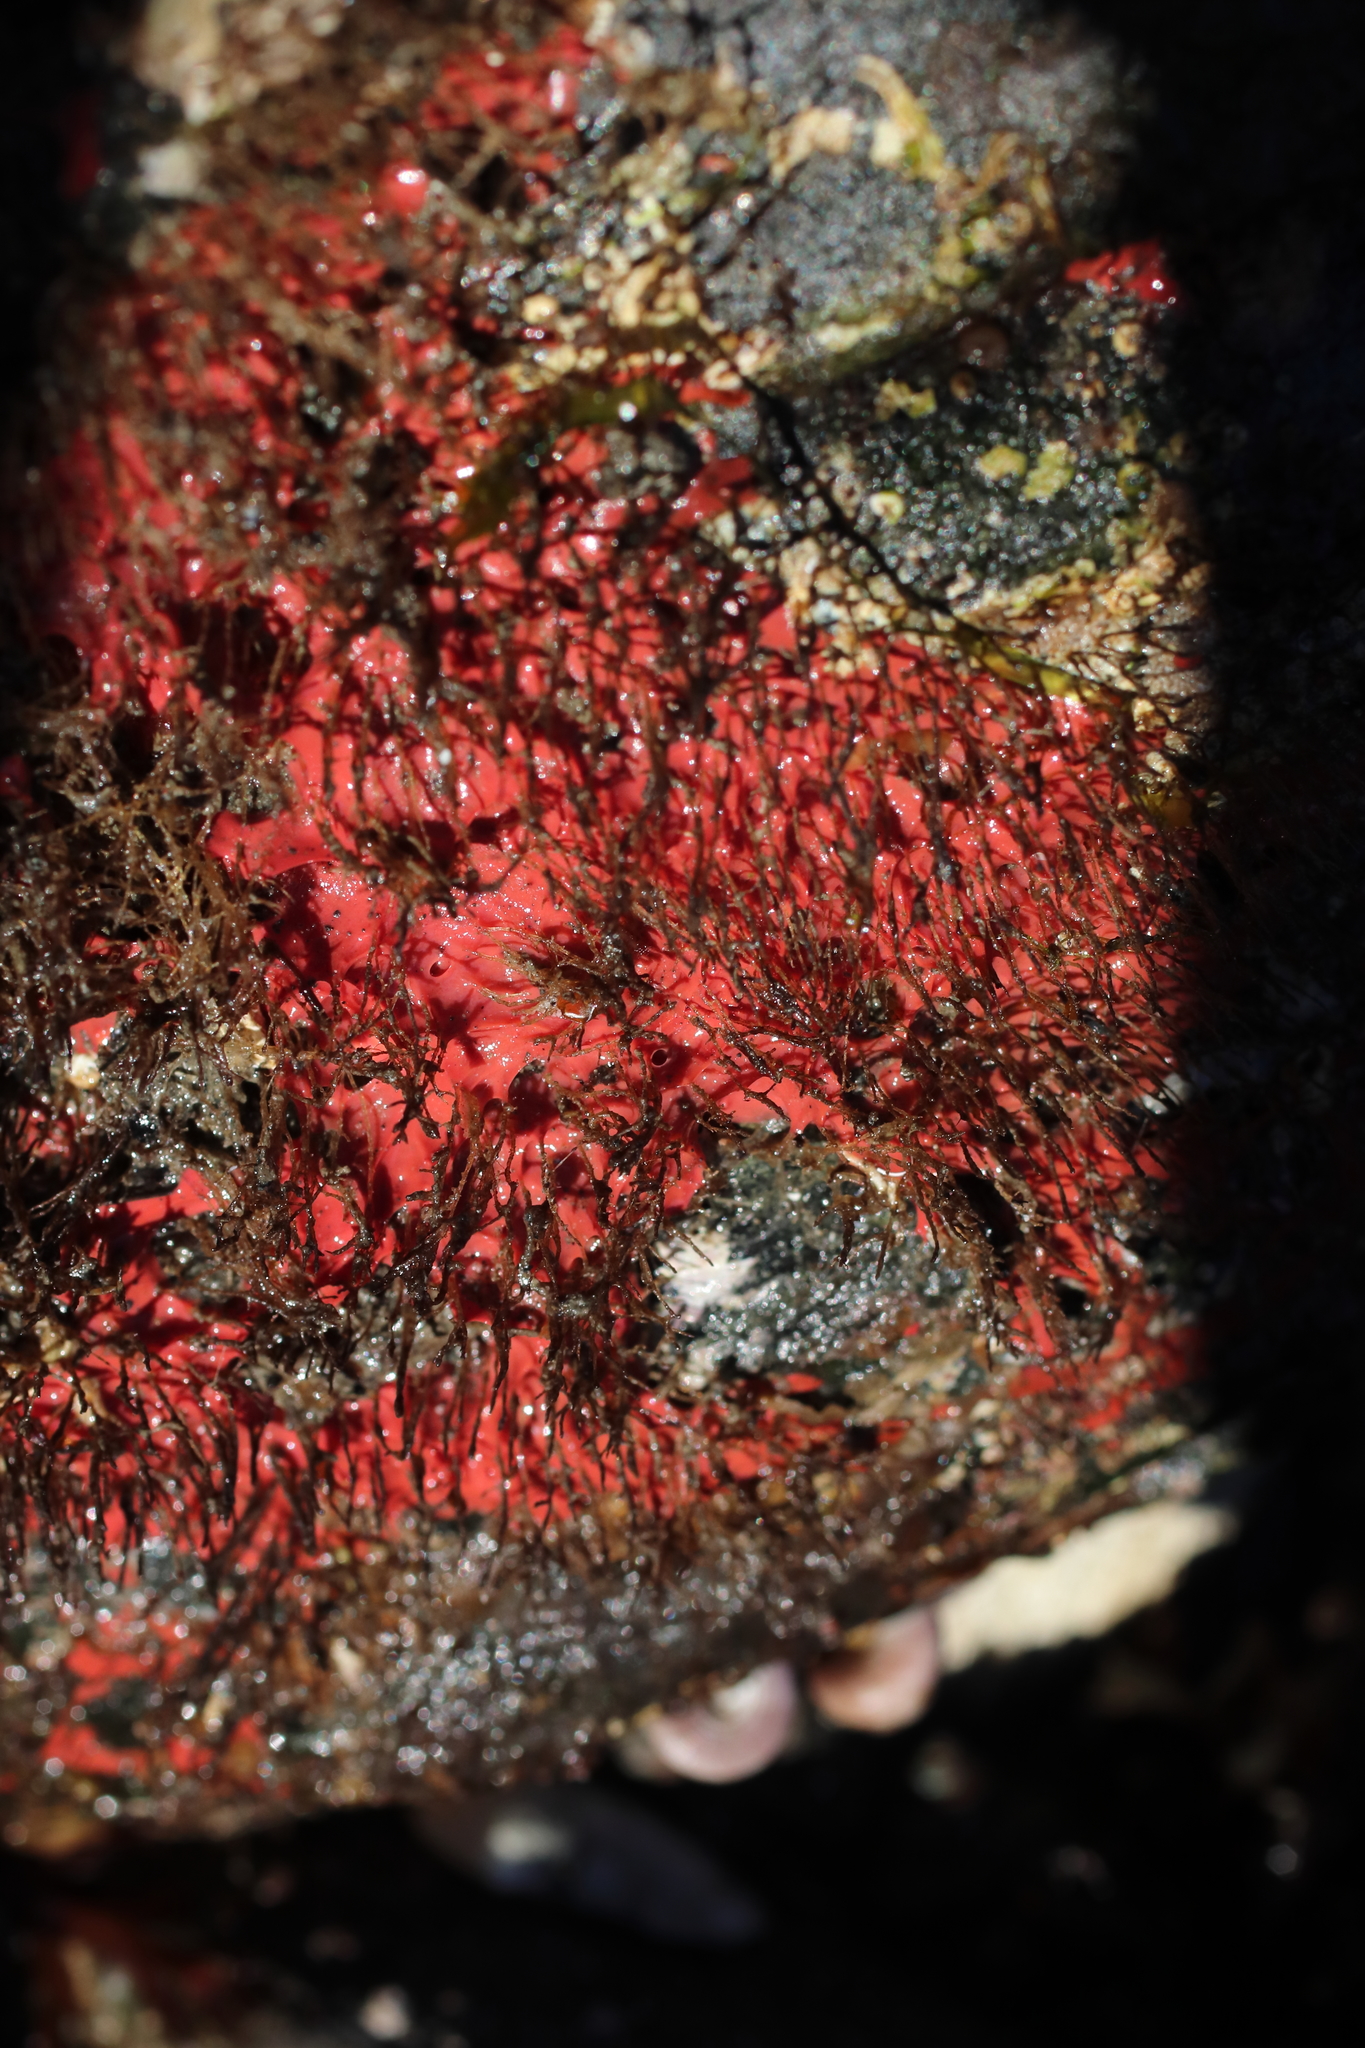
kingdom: Animalia
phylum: Porifera
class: Demospongiae
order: Dendroceratida
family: Darwinellidae
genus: Aplysilla
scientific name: Aplysilla glacialis
